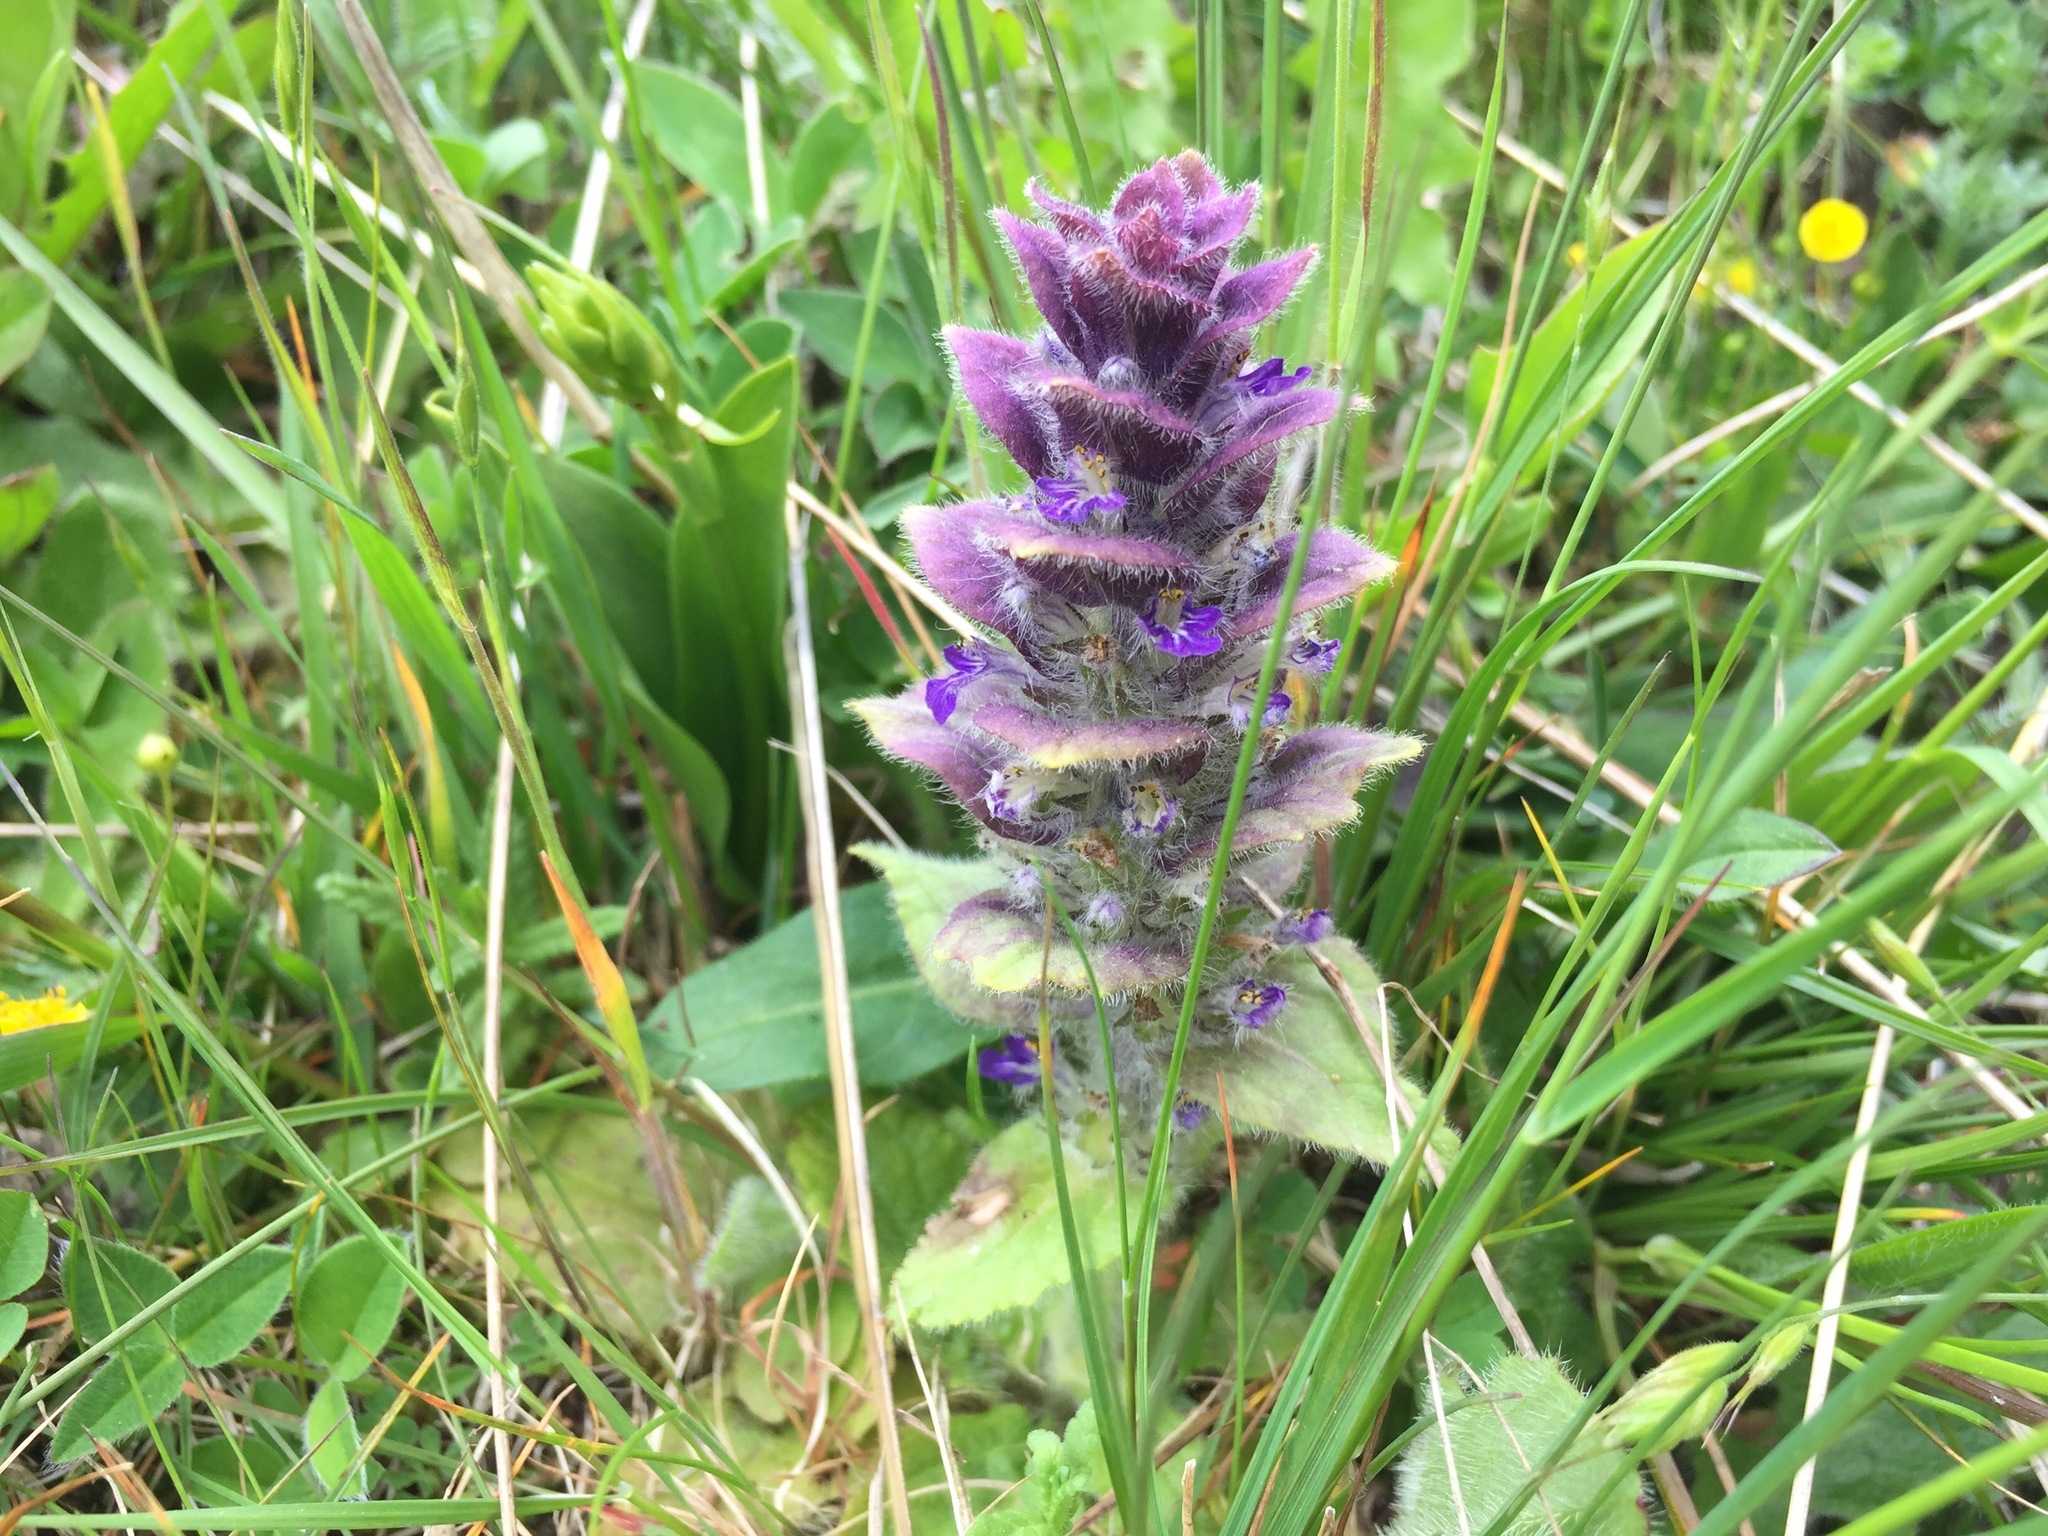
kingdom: Plantae
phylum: Tracheophyta
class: Magnoliopsida
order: Lamiales
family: Lamiaceae
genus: Ajuga
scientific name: Ajuga pyramidalis
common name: Pyramid bugle
